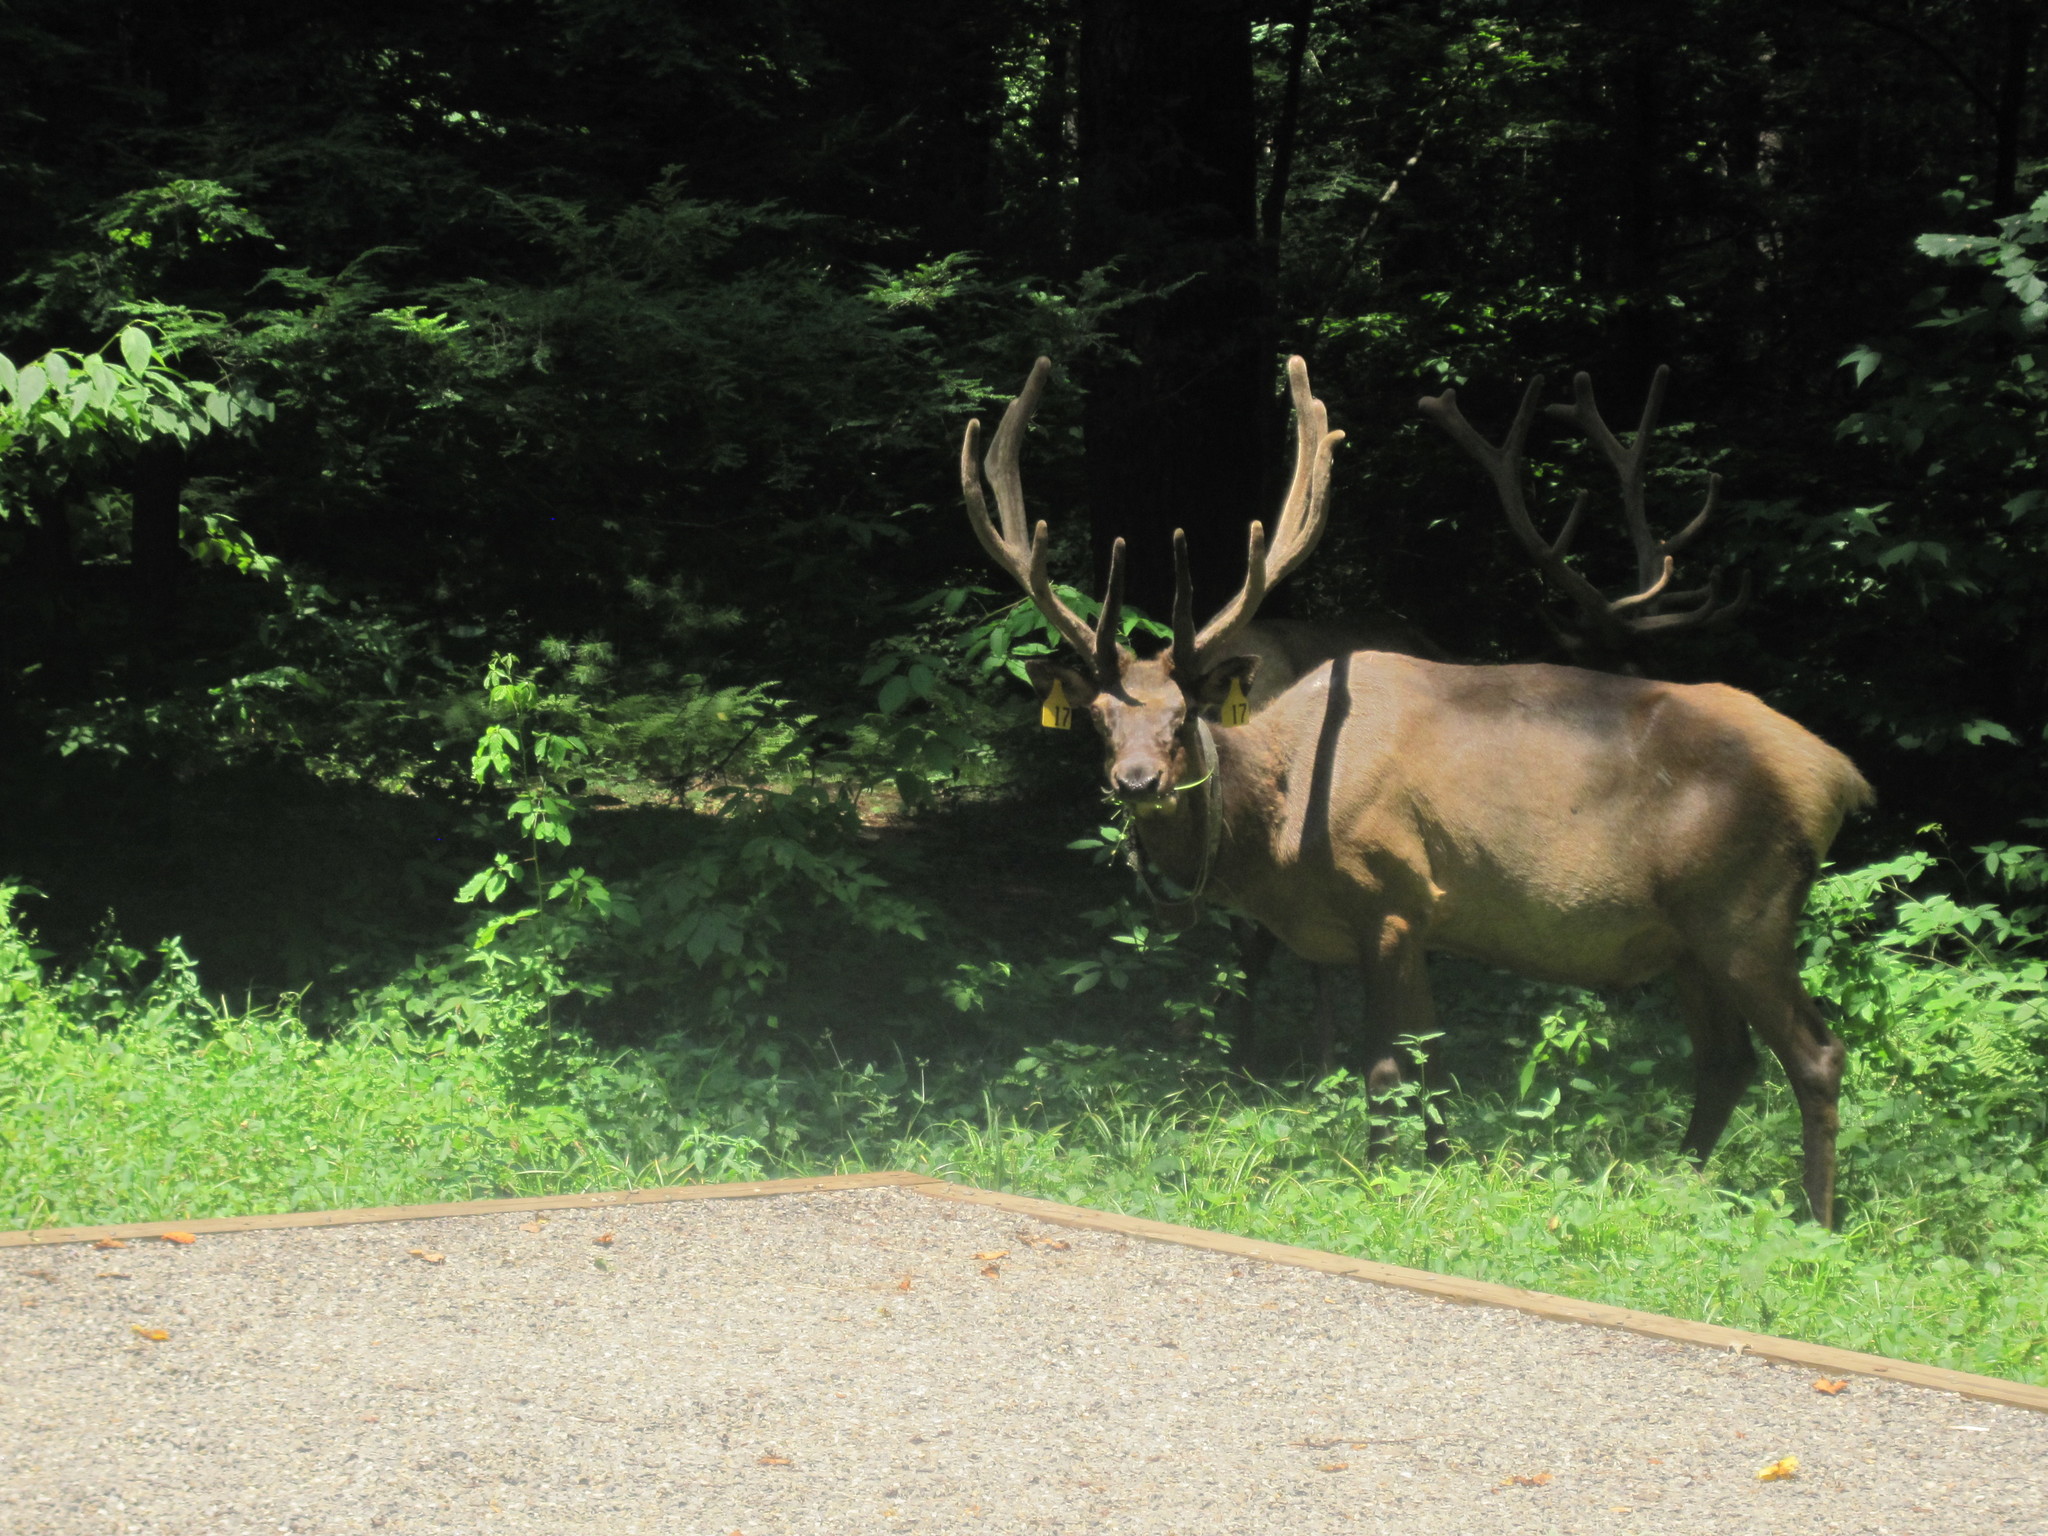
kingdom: Animalia
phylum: Chordata
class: Mammalia
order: Artiodactyla
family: Cervidae
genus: Cervus
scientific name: Cervus elaphus
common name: Red deer
